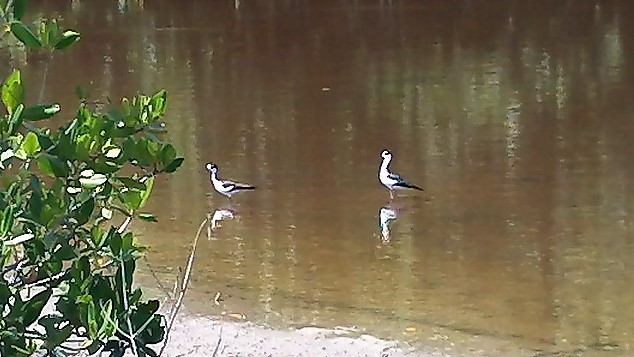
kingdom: Animalia
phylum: Chordata
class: Aves
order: Charadriiformes
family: Recurvirostridae
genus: Himantopus
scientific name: Himantopus mexicanus
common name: Black-necked stilt
